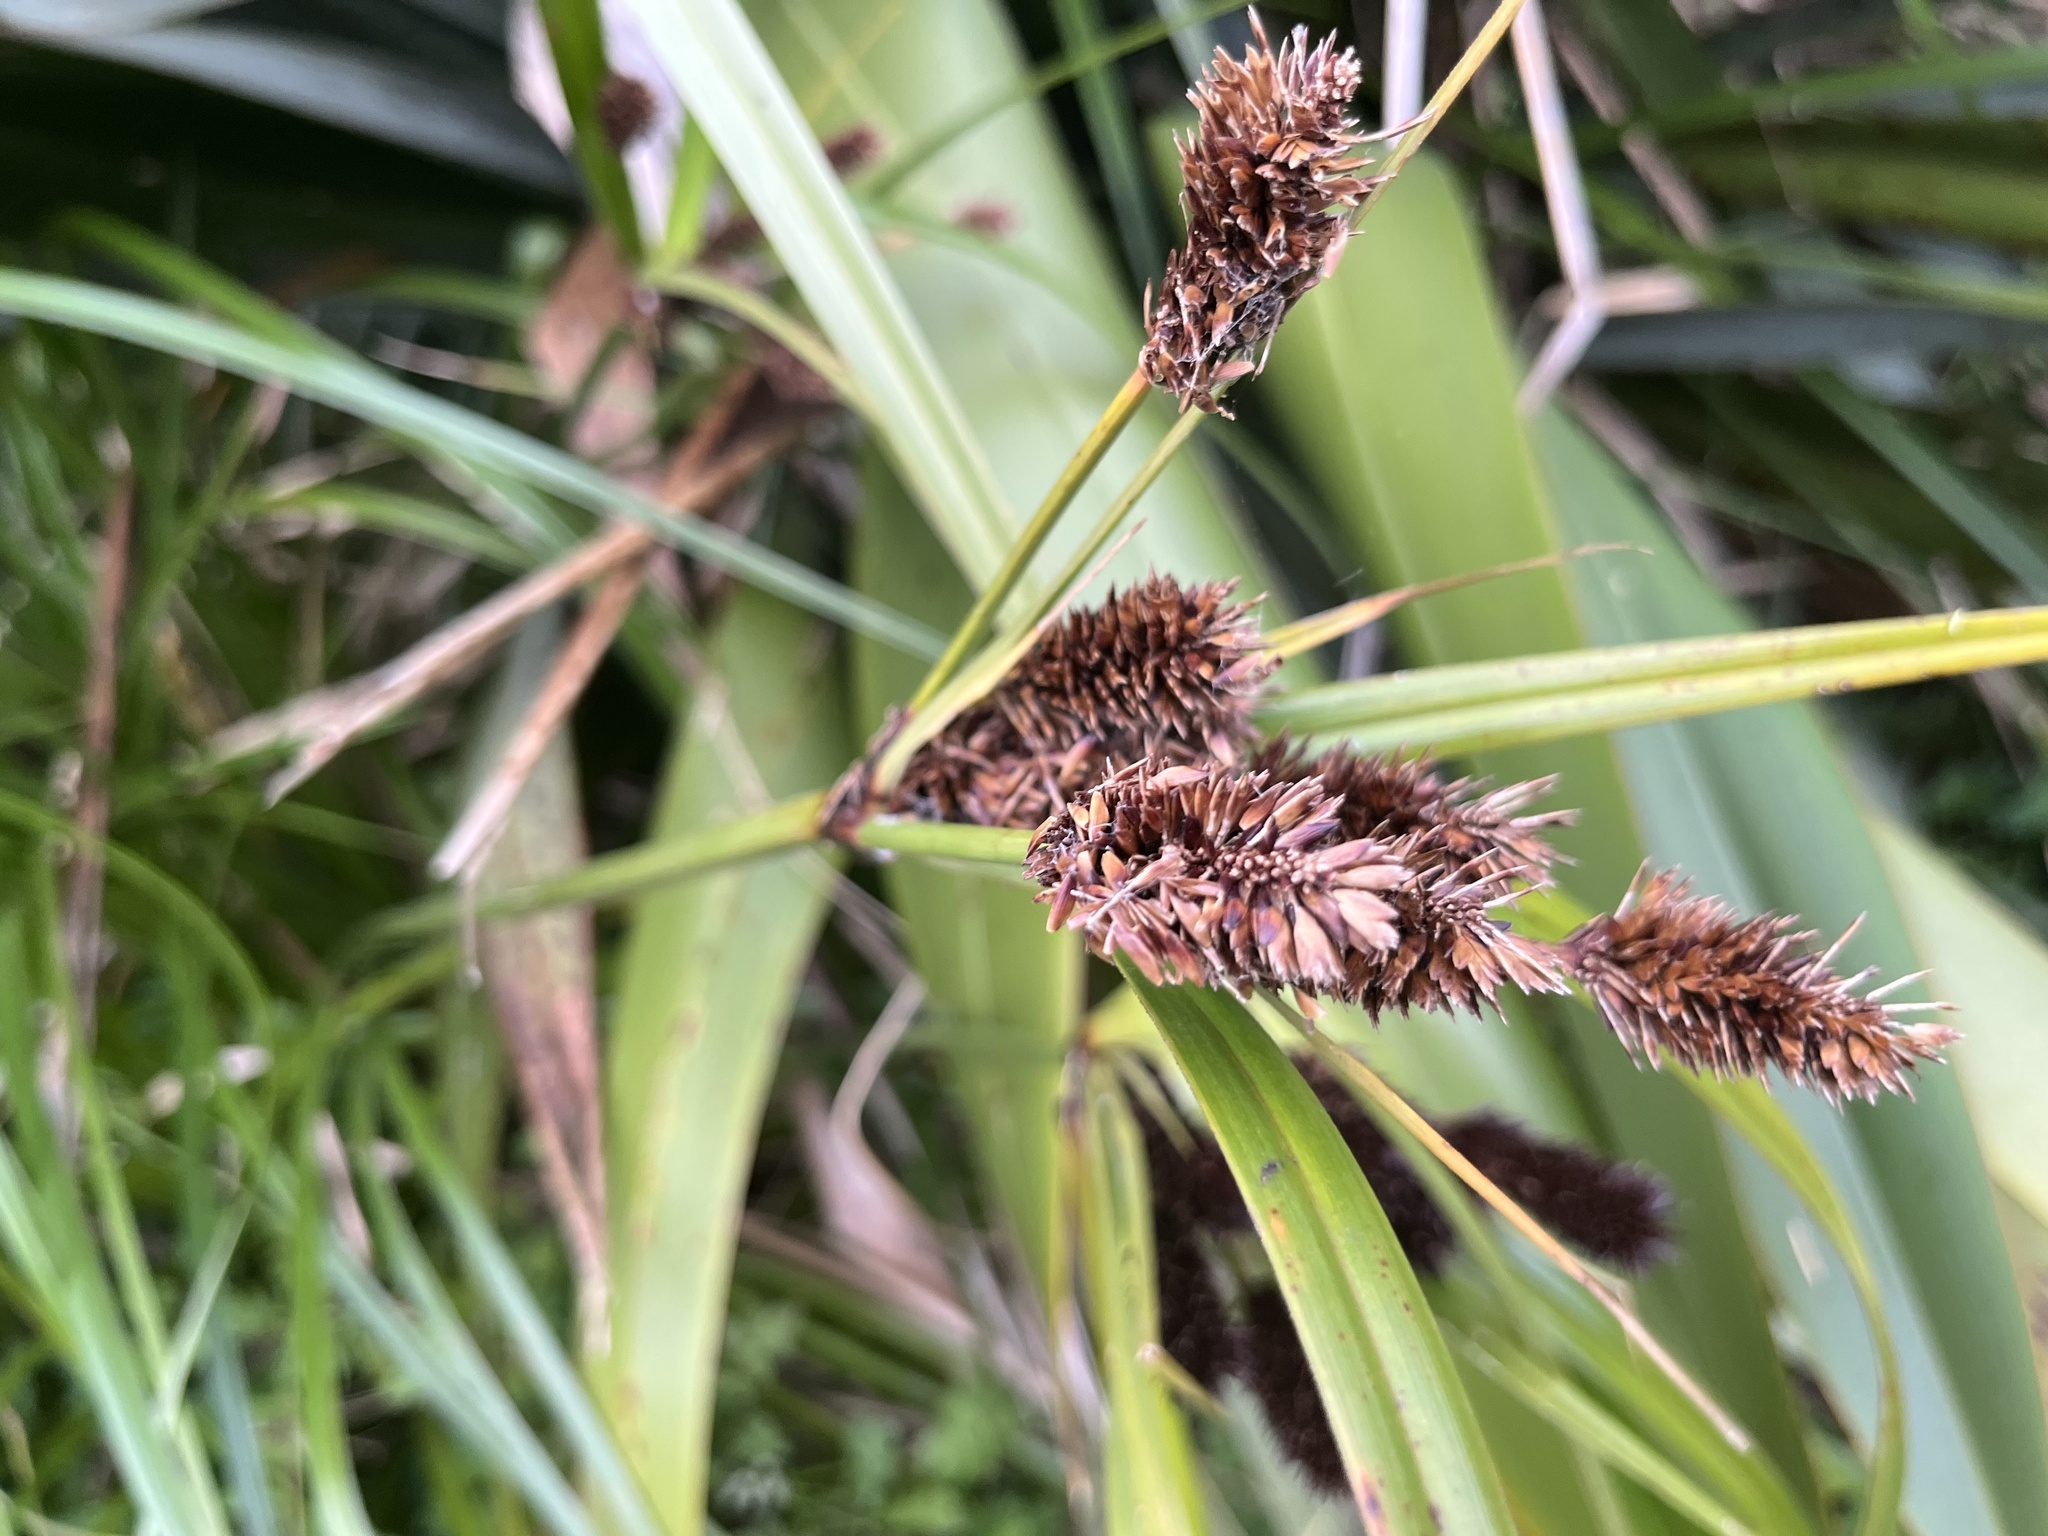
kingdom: Plantae
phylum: Tracheophyta
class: Liliopsida
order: Poales
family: Cyperaceae
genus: Cyperus
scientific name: Cyperus ustulatus
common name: Giant umbrella-sedge
